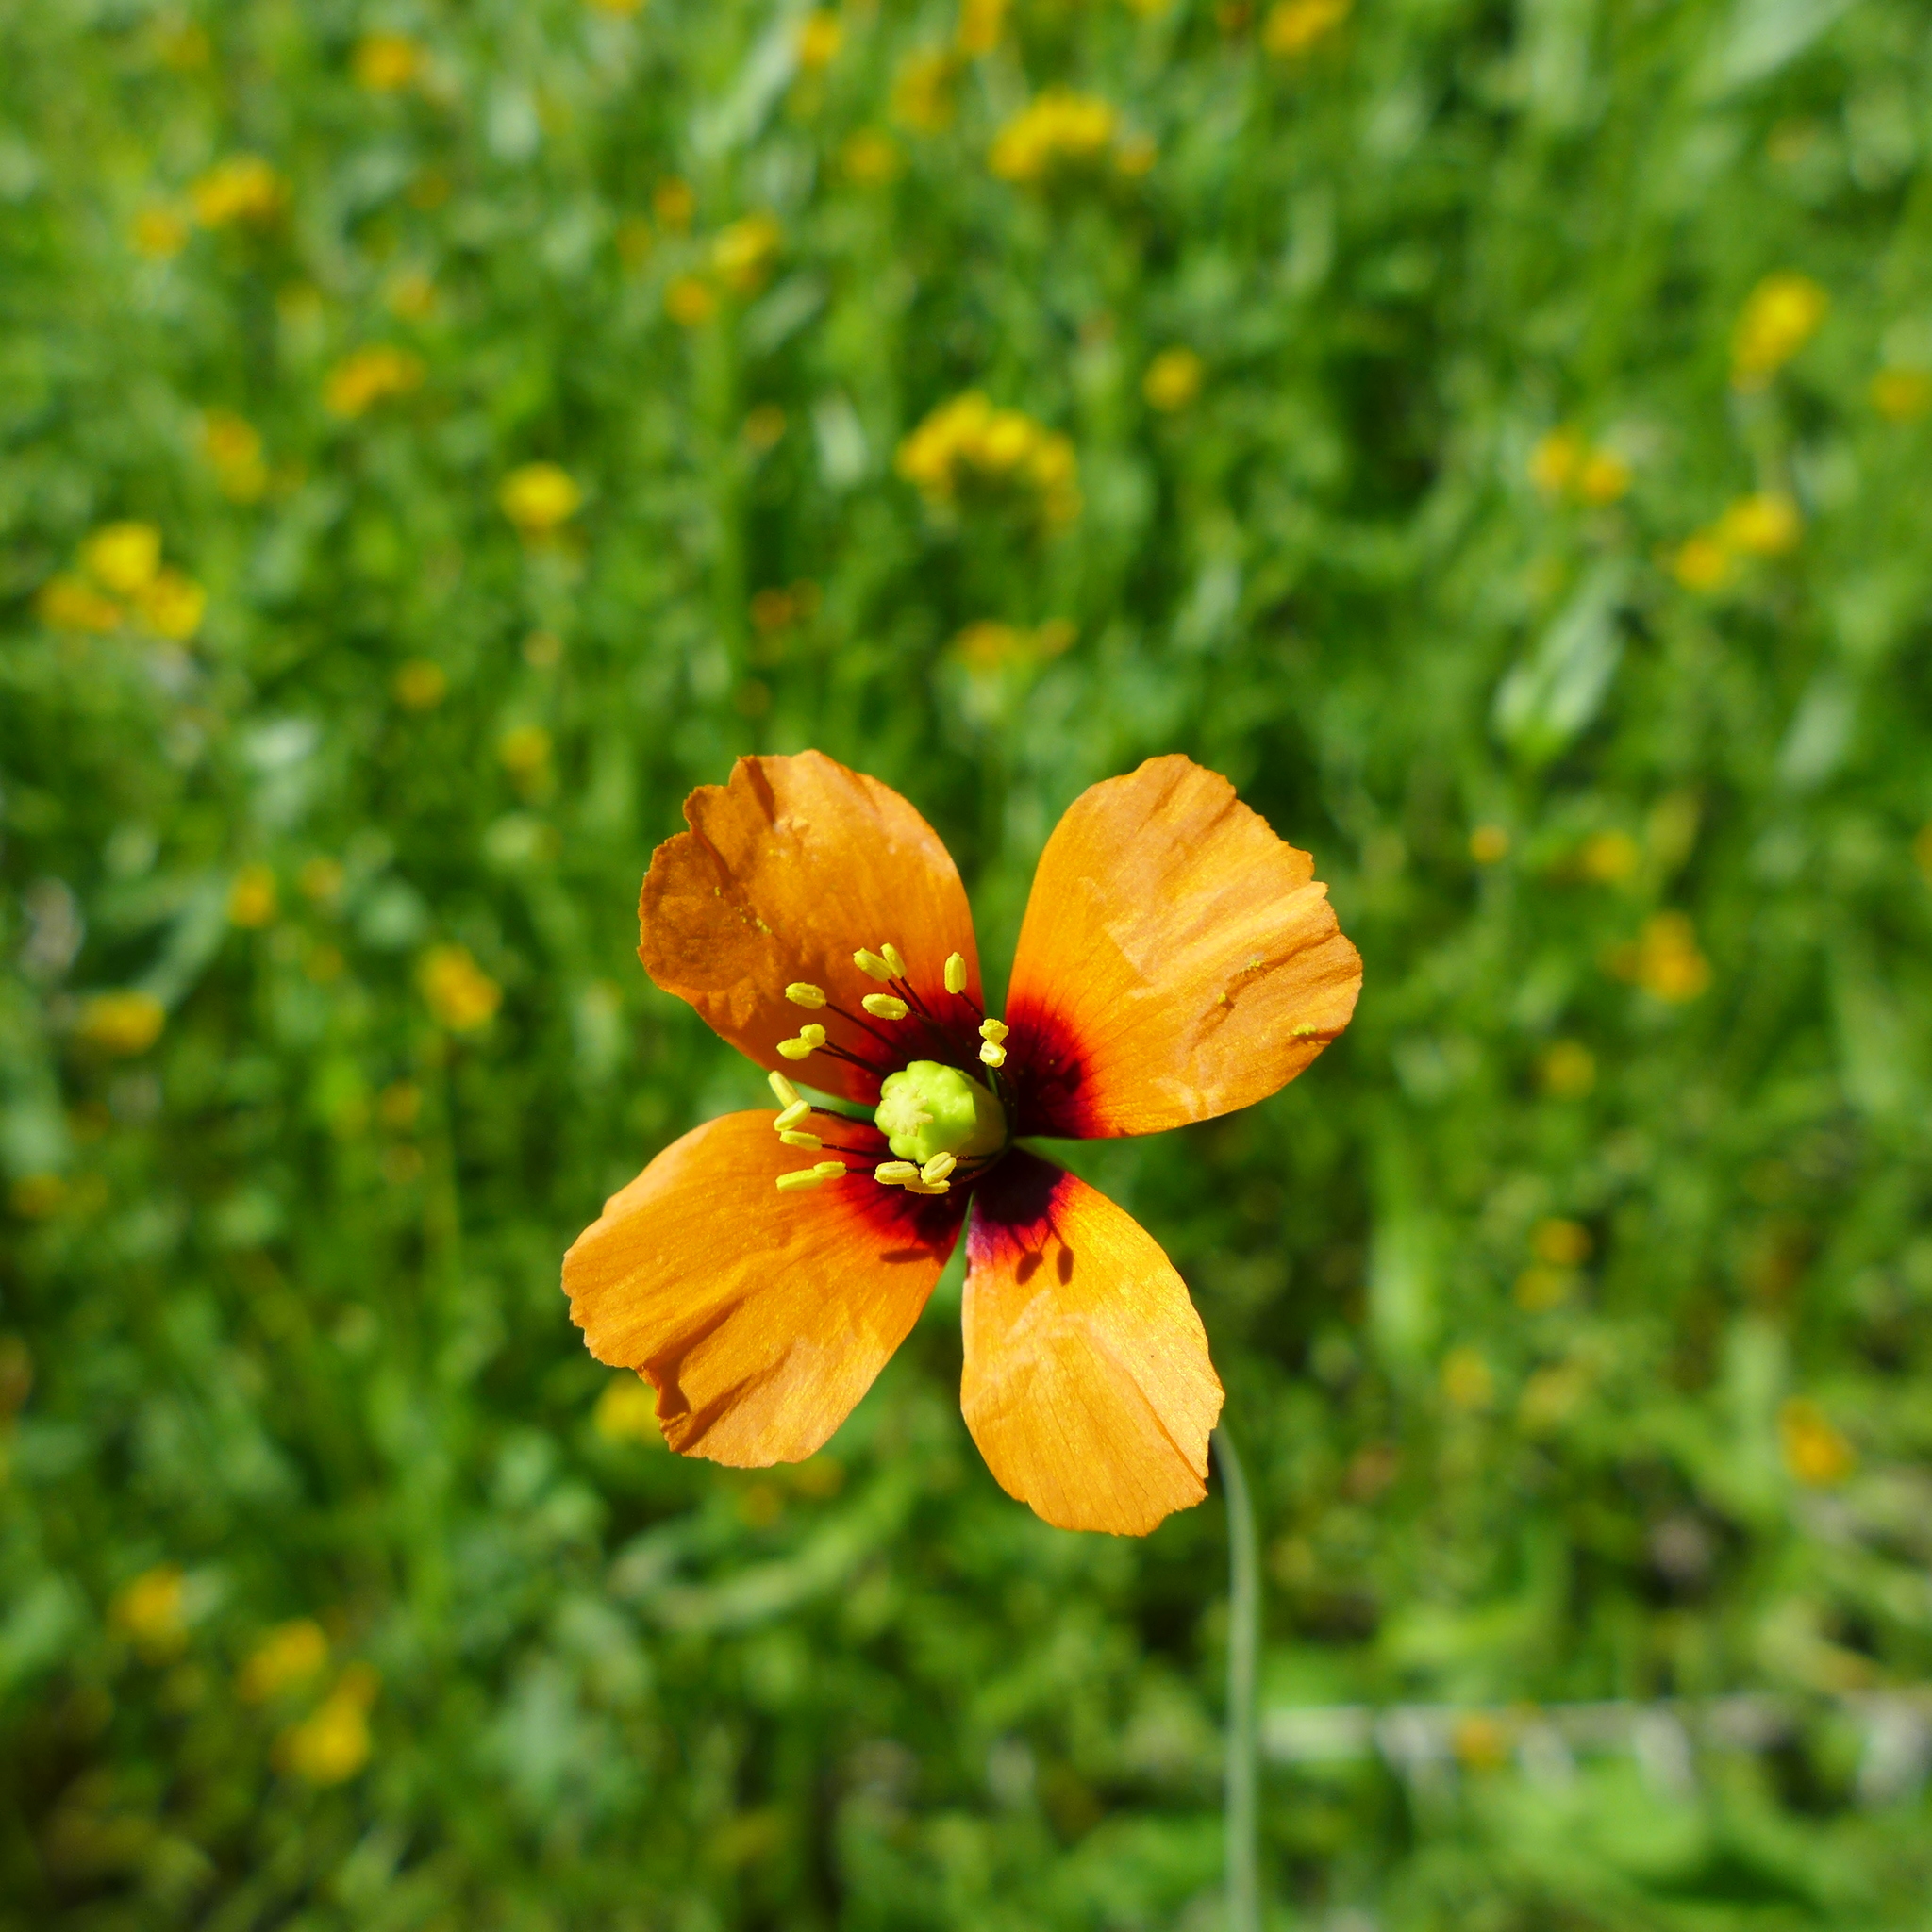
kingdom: Plantae
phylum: Tracheophyta
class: Magnoliopsida
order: Ranunculales
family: Papaveraceae
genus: Stylomecon
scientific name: Stylomecon heterophylla
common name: Flaming-poppy
